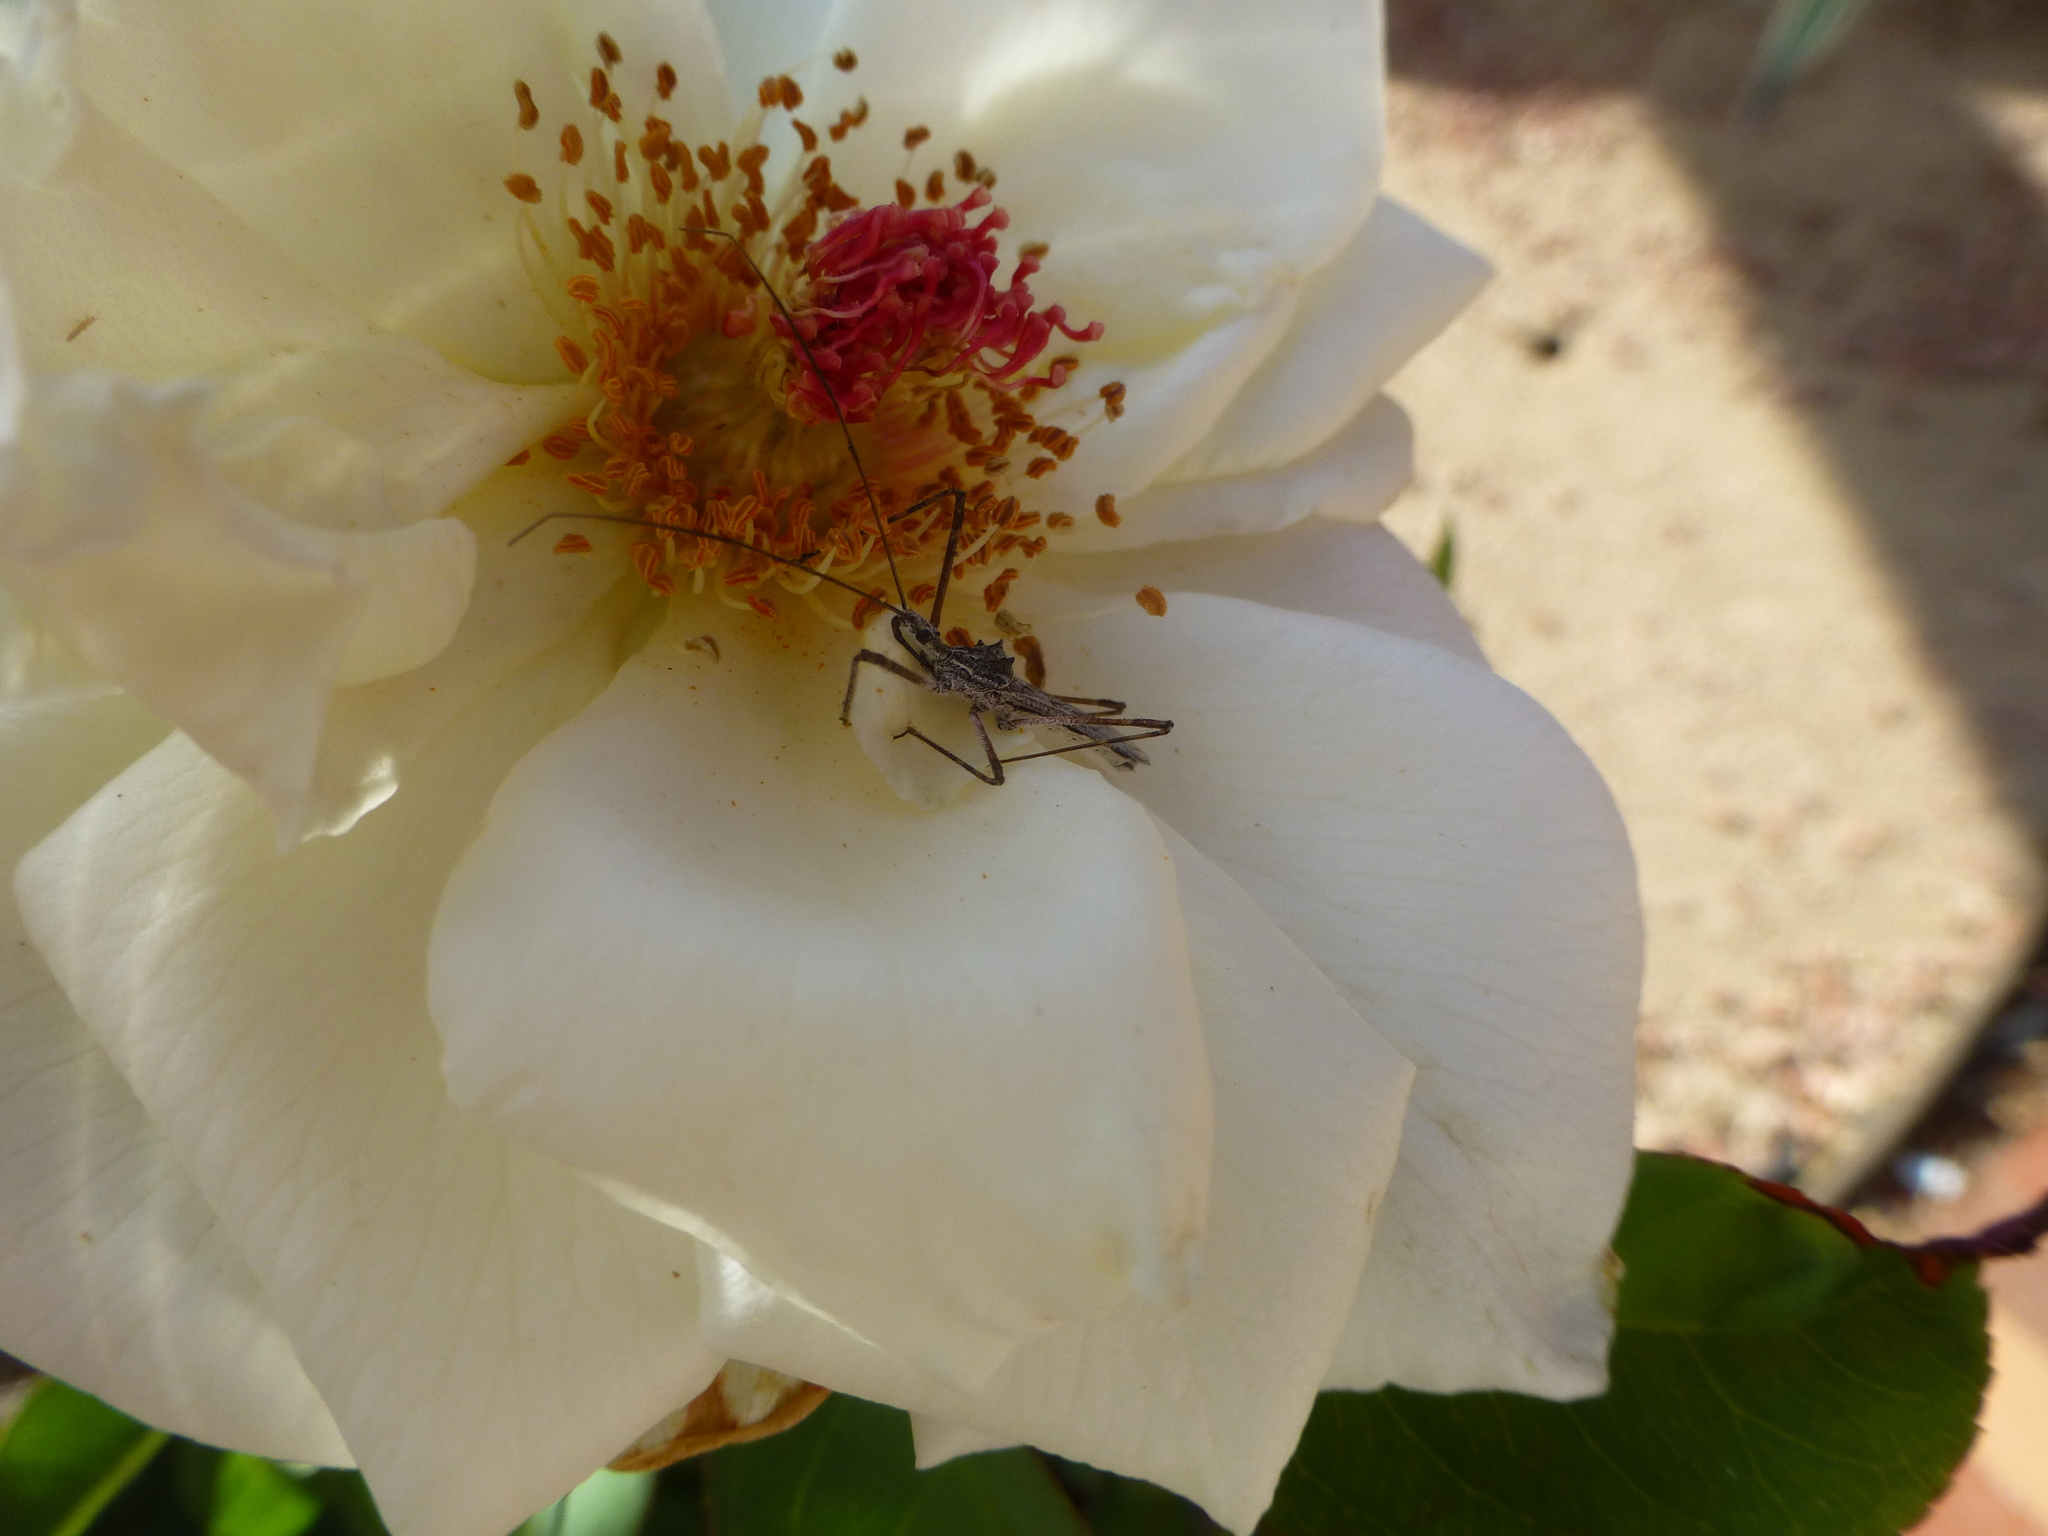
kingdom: Animalia
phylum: Arthropoda
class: Insecta
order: Hemiptera
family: Reduviidae
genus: Zelus
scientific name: Zelus tetracanthus
